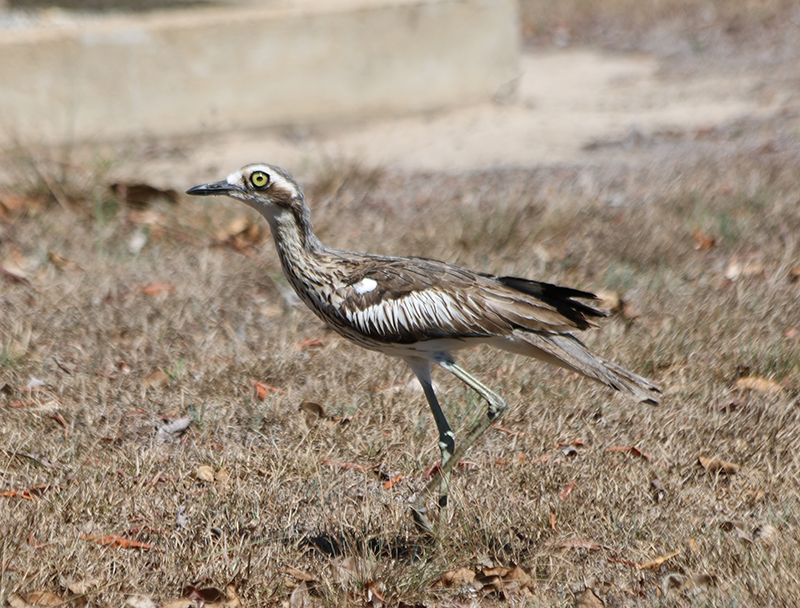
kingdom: Animalia
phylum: Chordata
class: Aves
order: Charadriiformes
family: Burhinidae
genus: Burhinus
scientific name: Burhinus grallarius
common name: Bush stone-curlew
